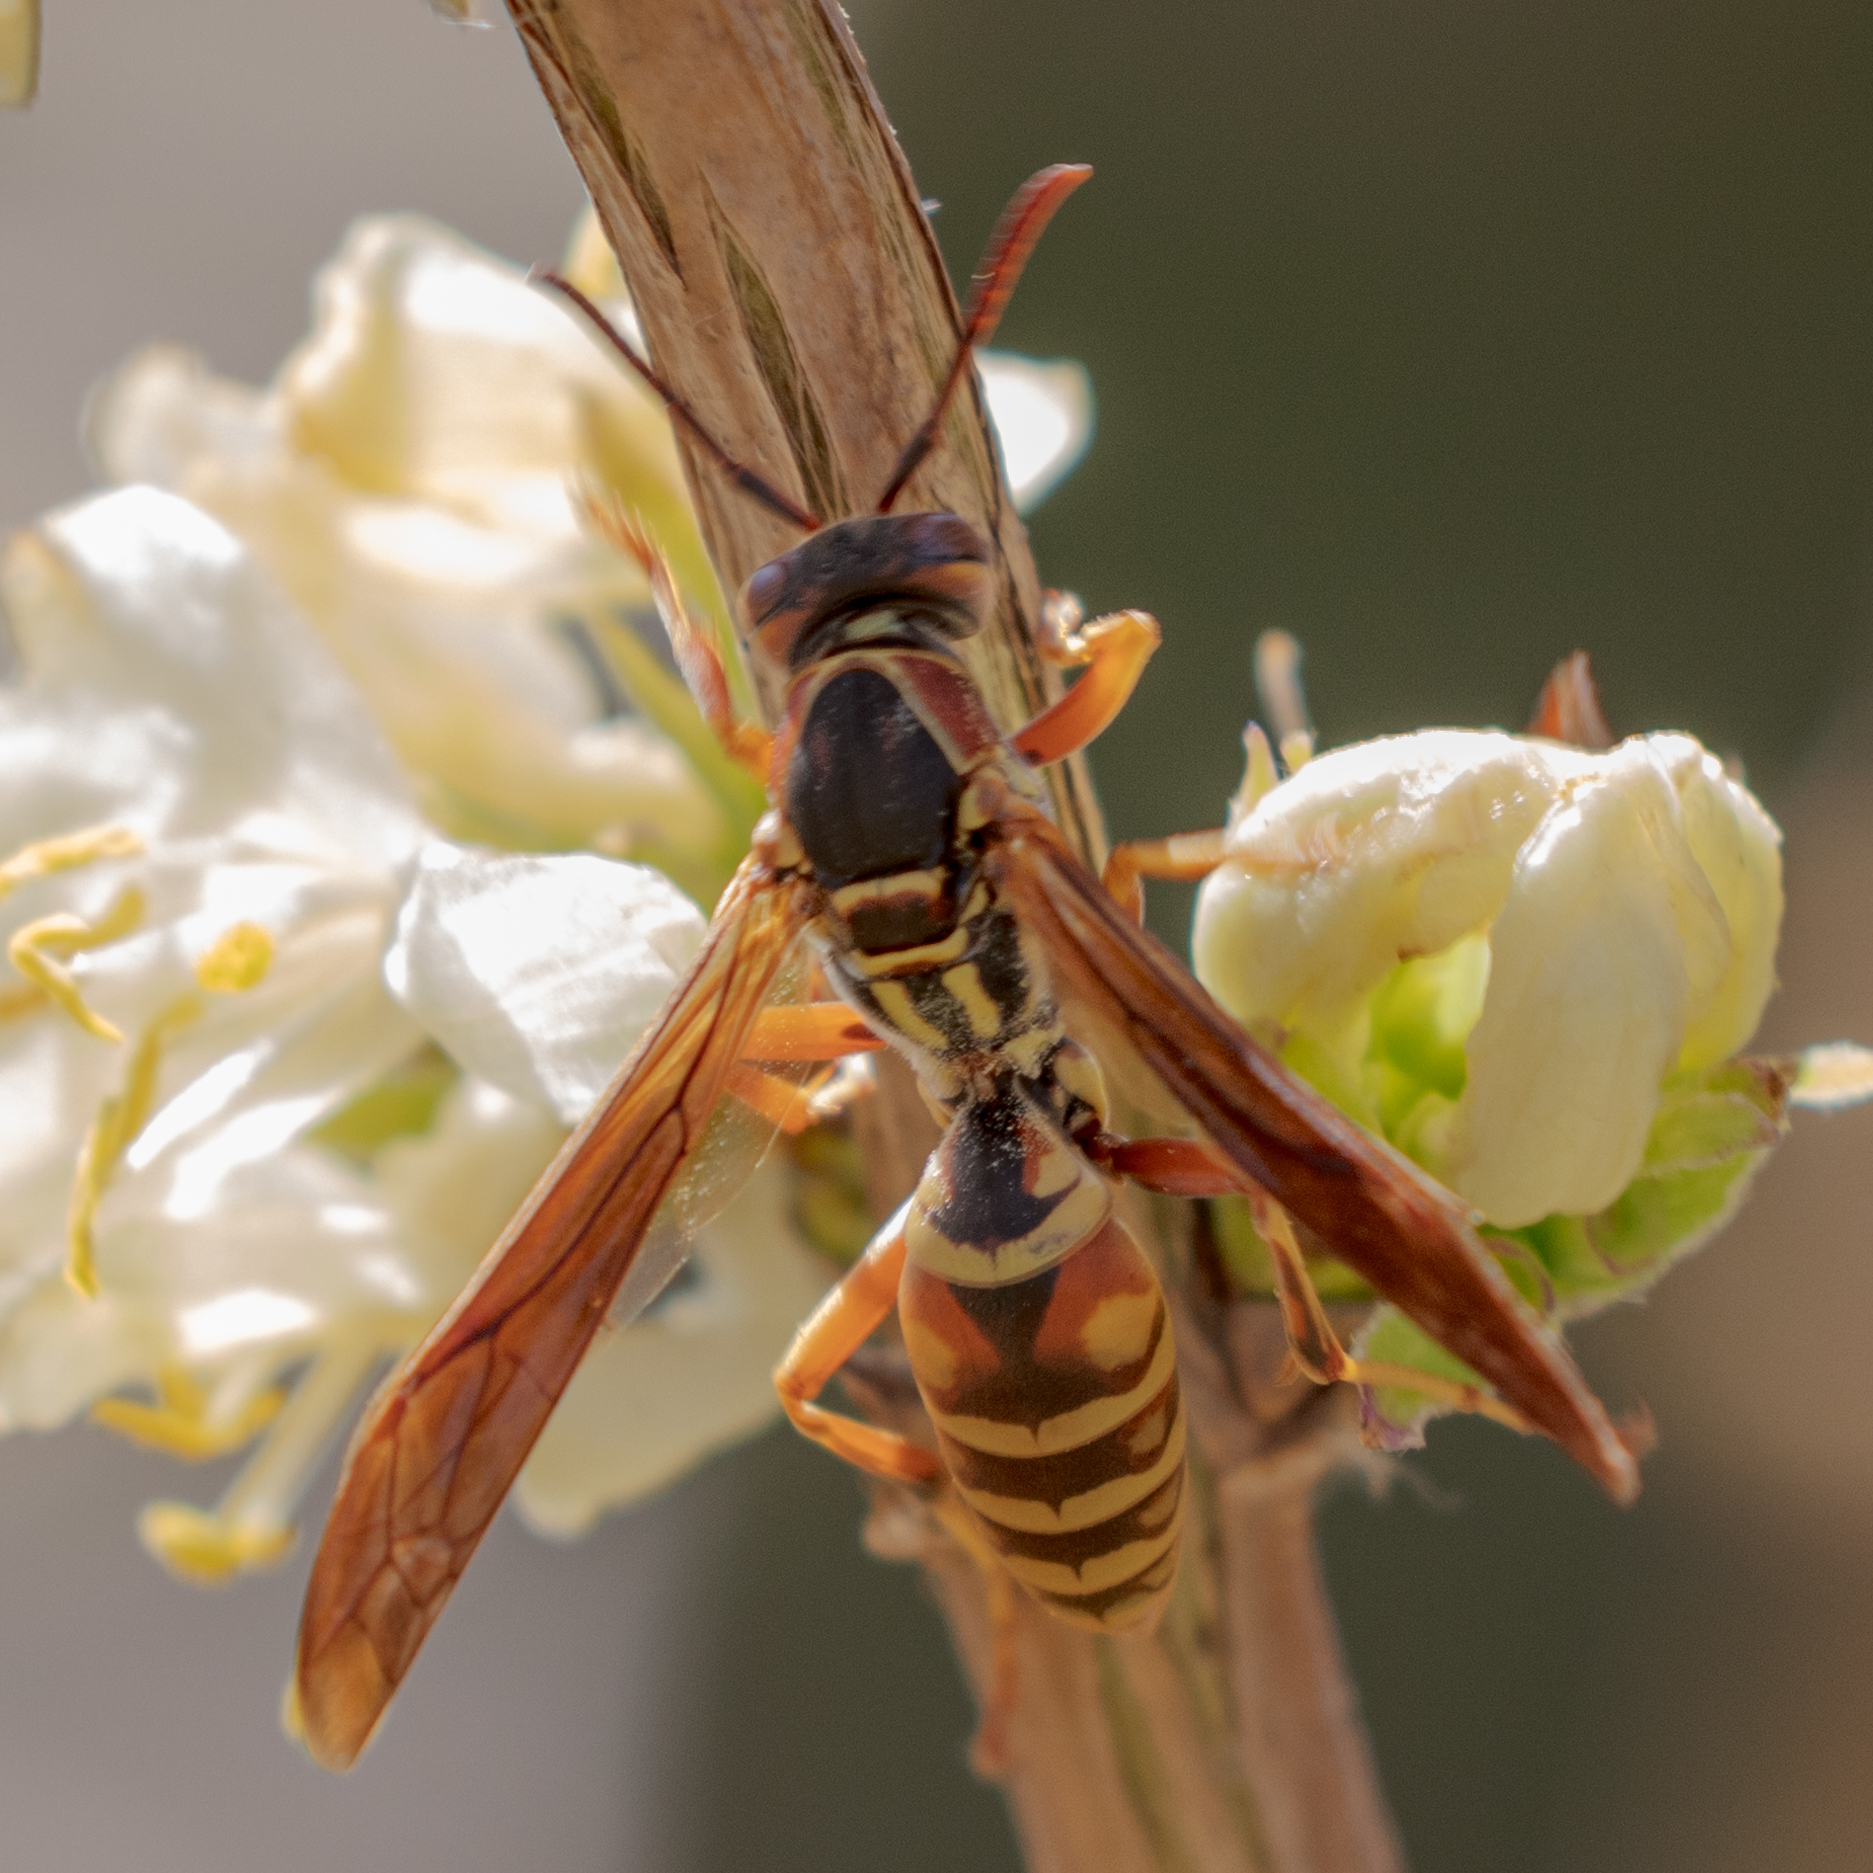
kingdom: Animalia
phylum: Arthropoda
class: Insecta
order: Hymenoptera
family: Eumenidae
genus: Polistes
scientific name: Polistes dorsalis
